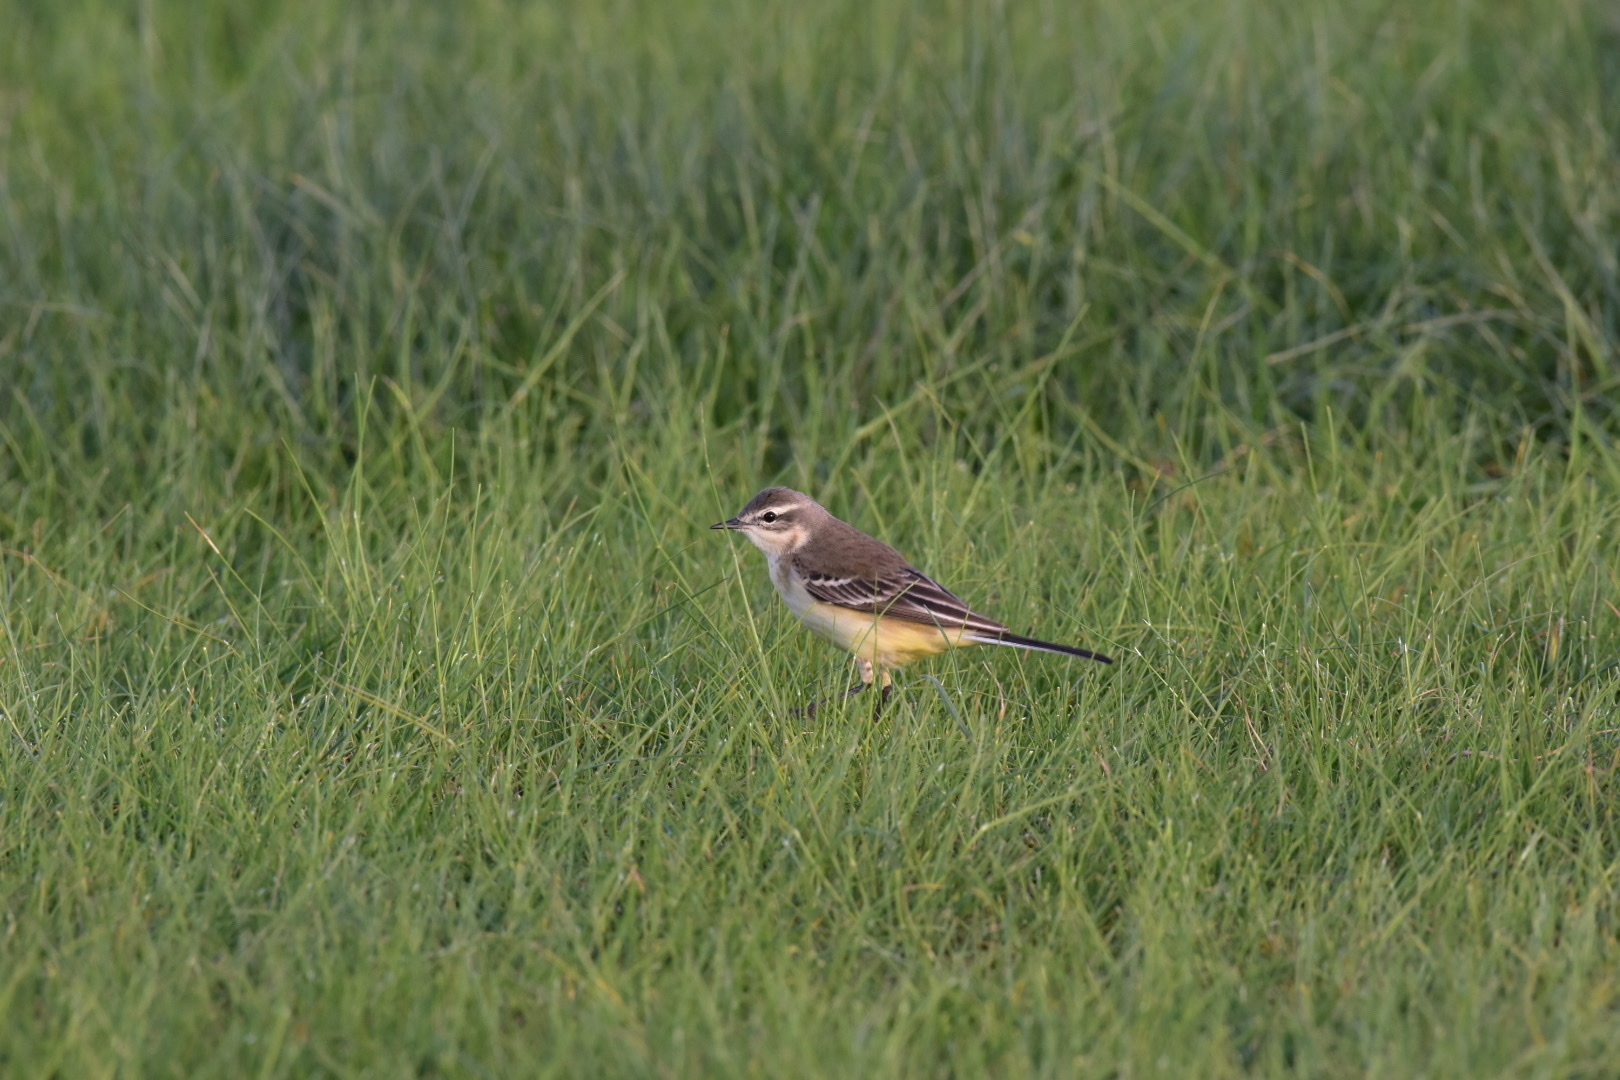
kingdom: Animalia
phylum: Chordata
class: Aves
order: Passeriformes
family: Motacillidae
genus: Motacilla
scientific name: Motacilla flava
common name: Western yellow wagtail
